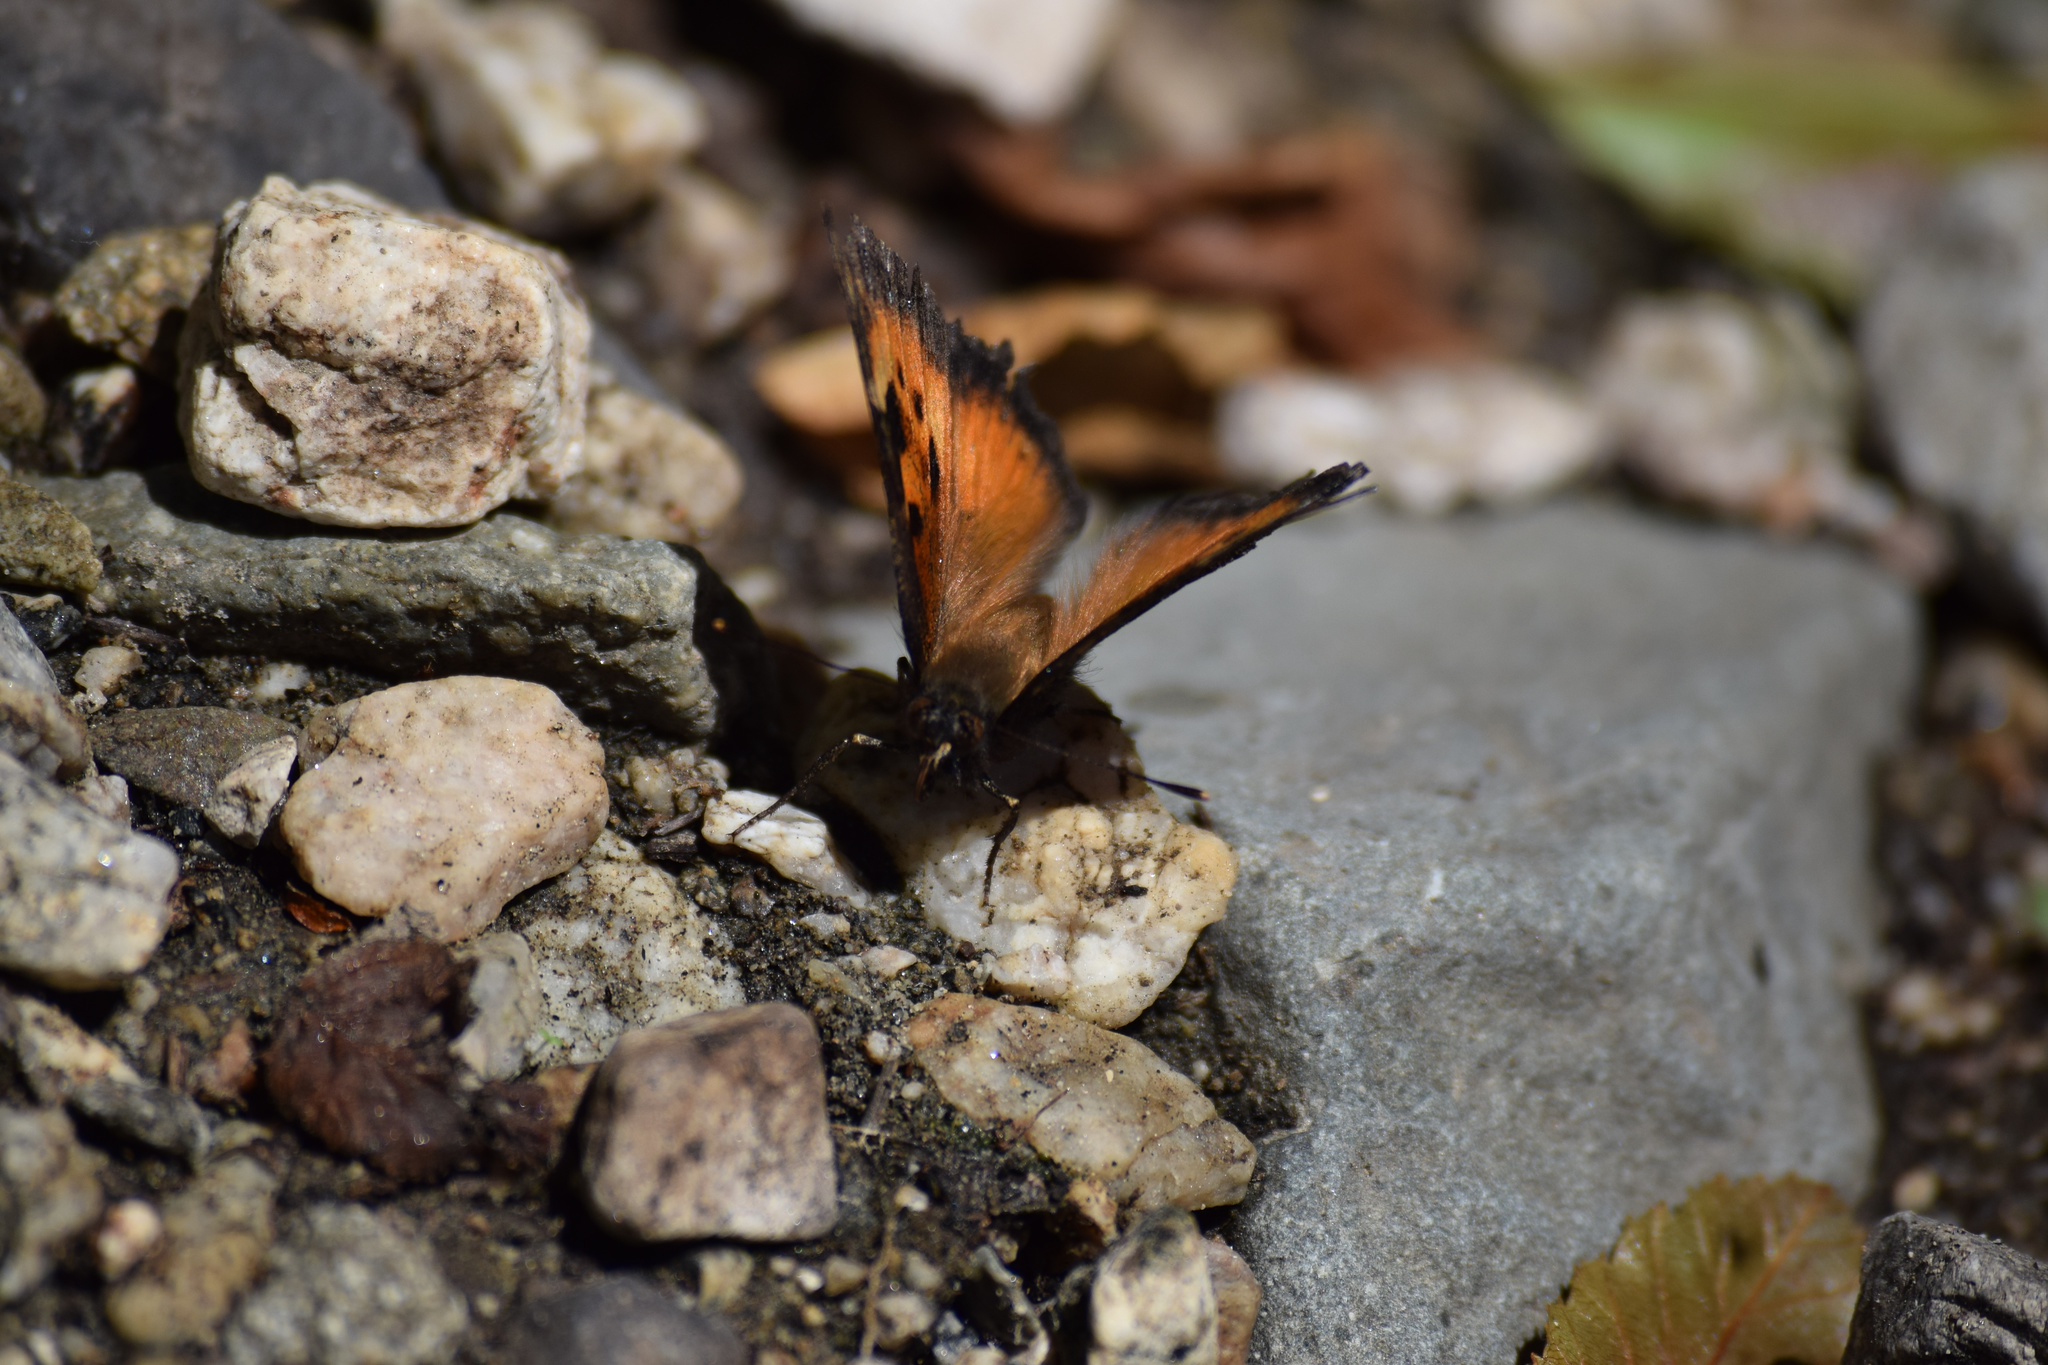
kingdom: Animalia
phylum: Arthropoda
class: Insecta
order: Lepidoptera
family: Nymphalidae
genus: Nymphalis
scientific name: Nymphalis californica
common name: California tortoiseshell
